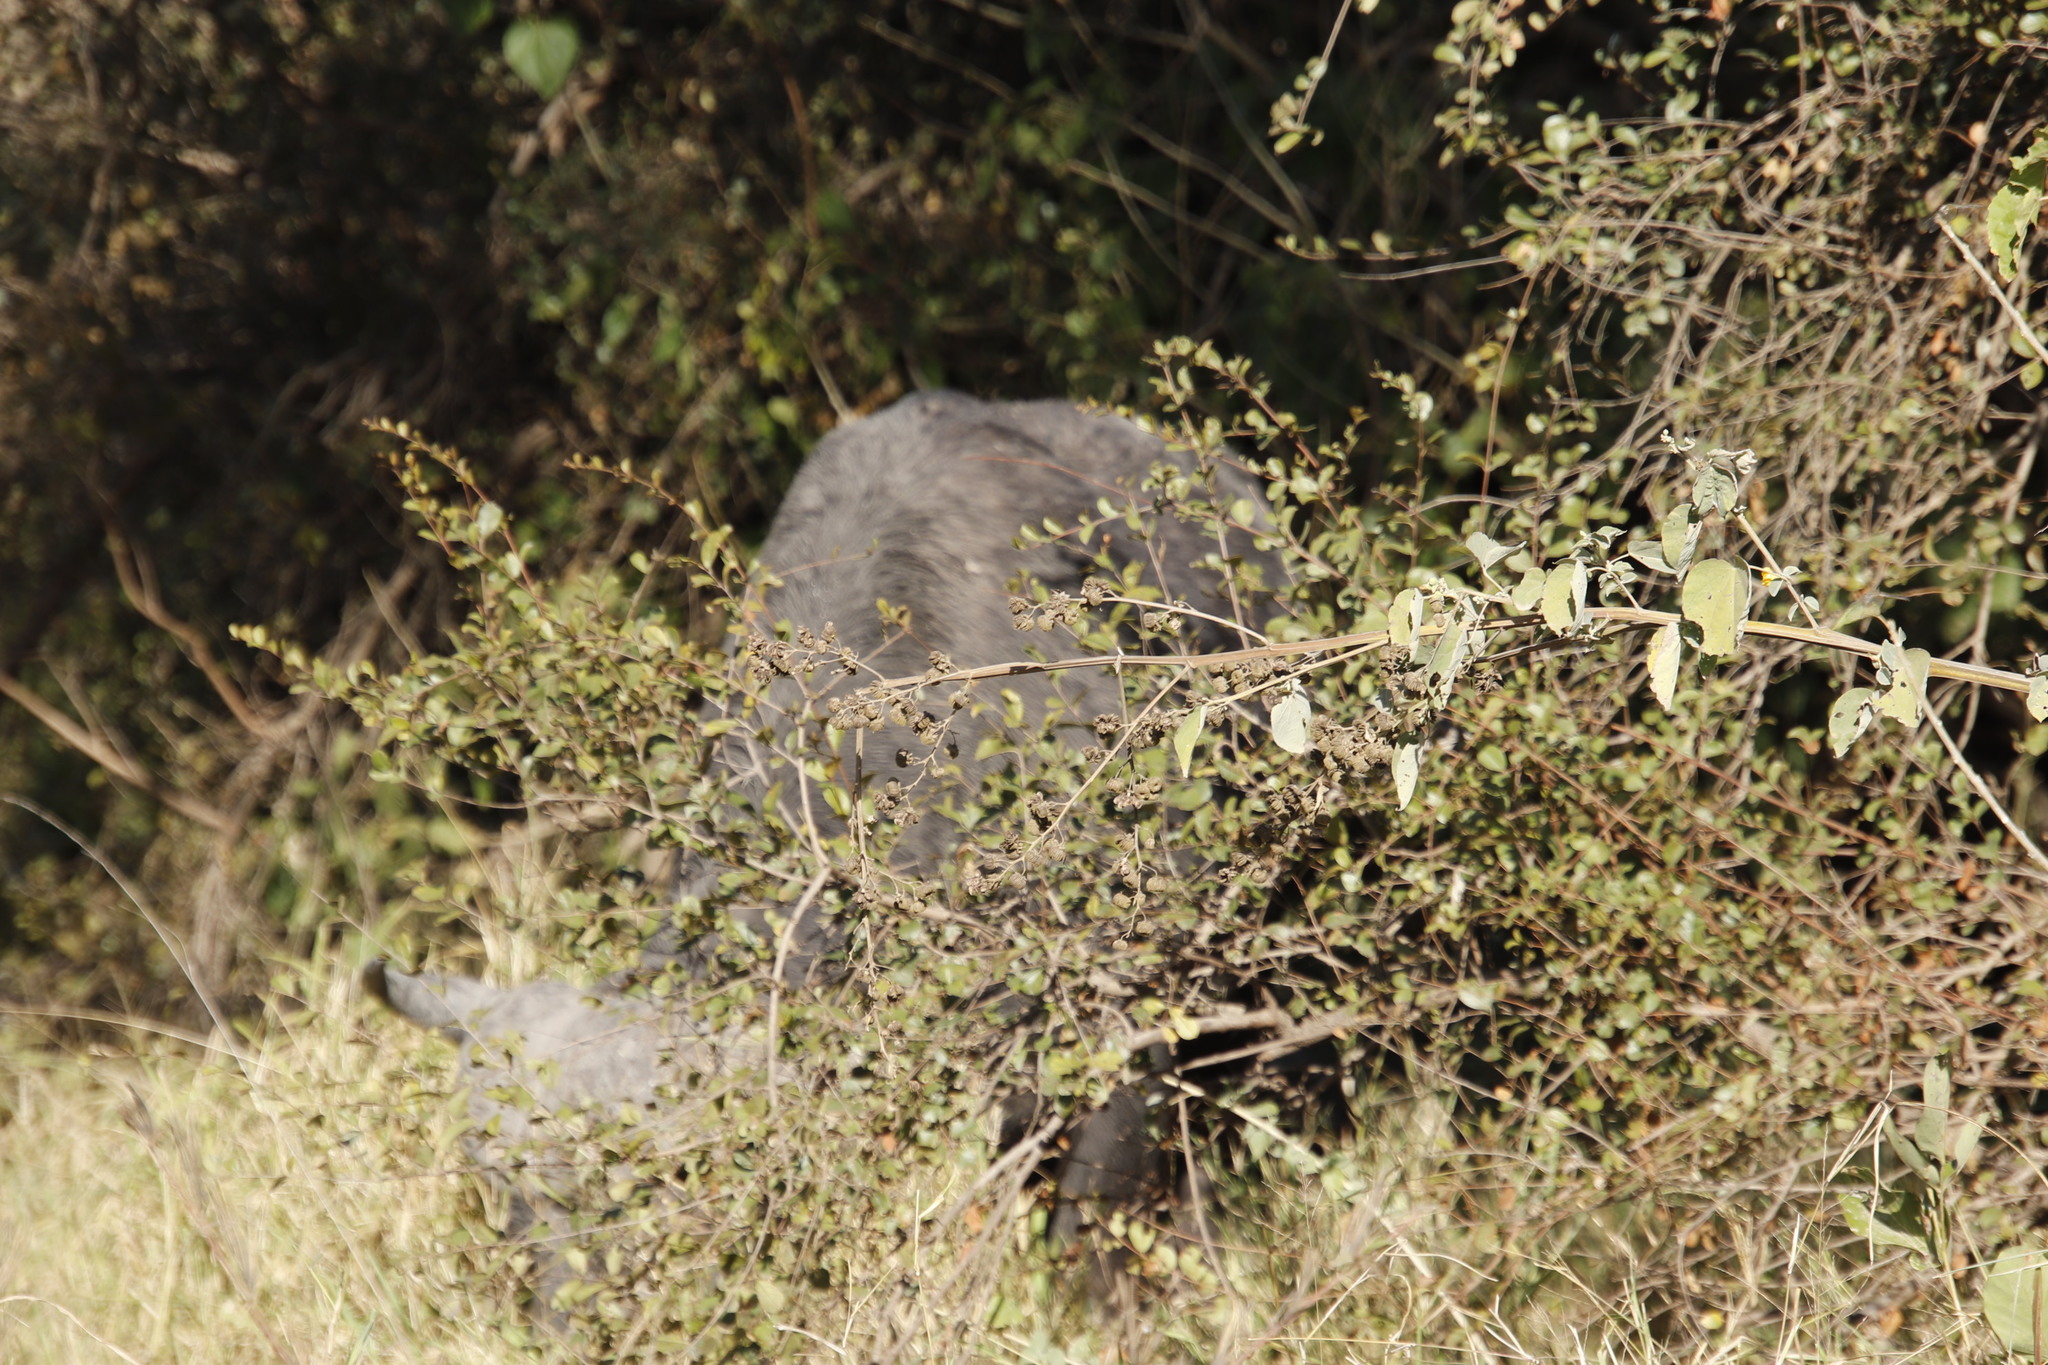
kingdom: Animalia
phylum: Chordata
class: Mammalia
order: Artiodactyla
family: Bovidae
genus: Syncerus
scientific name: Syncerus caffer
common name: African buffalo
